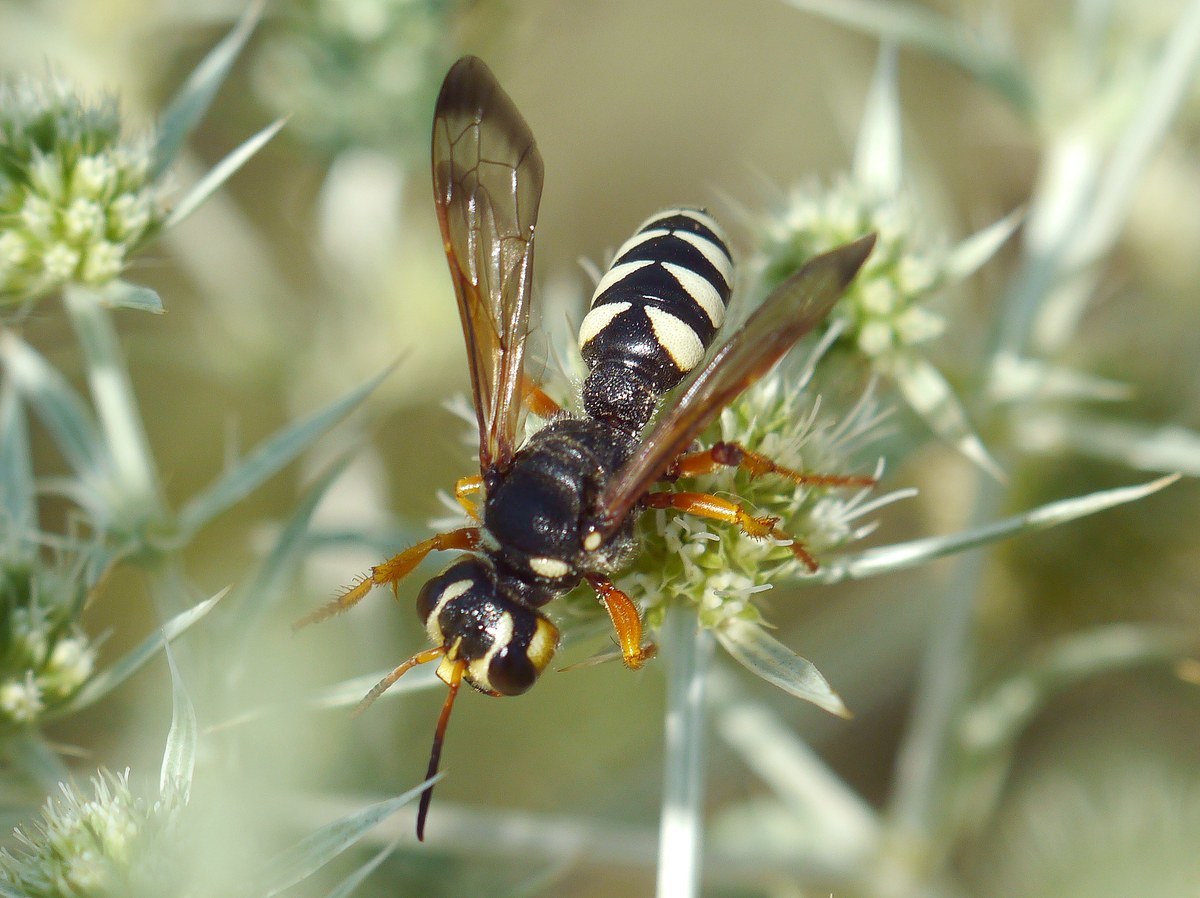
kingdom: Animalia
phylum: Arthropoda
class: Insecta
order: Hymenoptera
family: Crabronidae
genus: Cerceris
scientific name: Cerceris tuberculata
